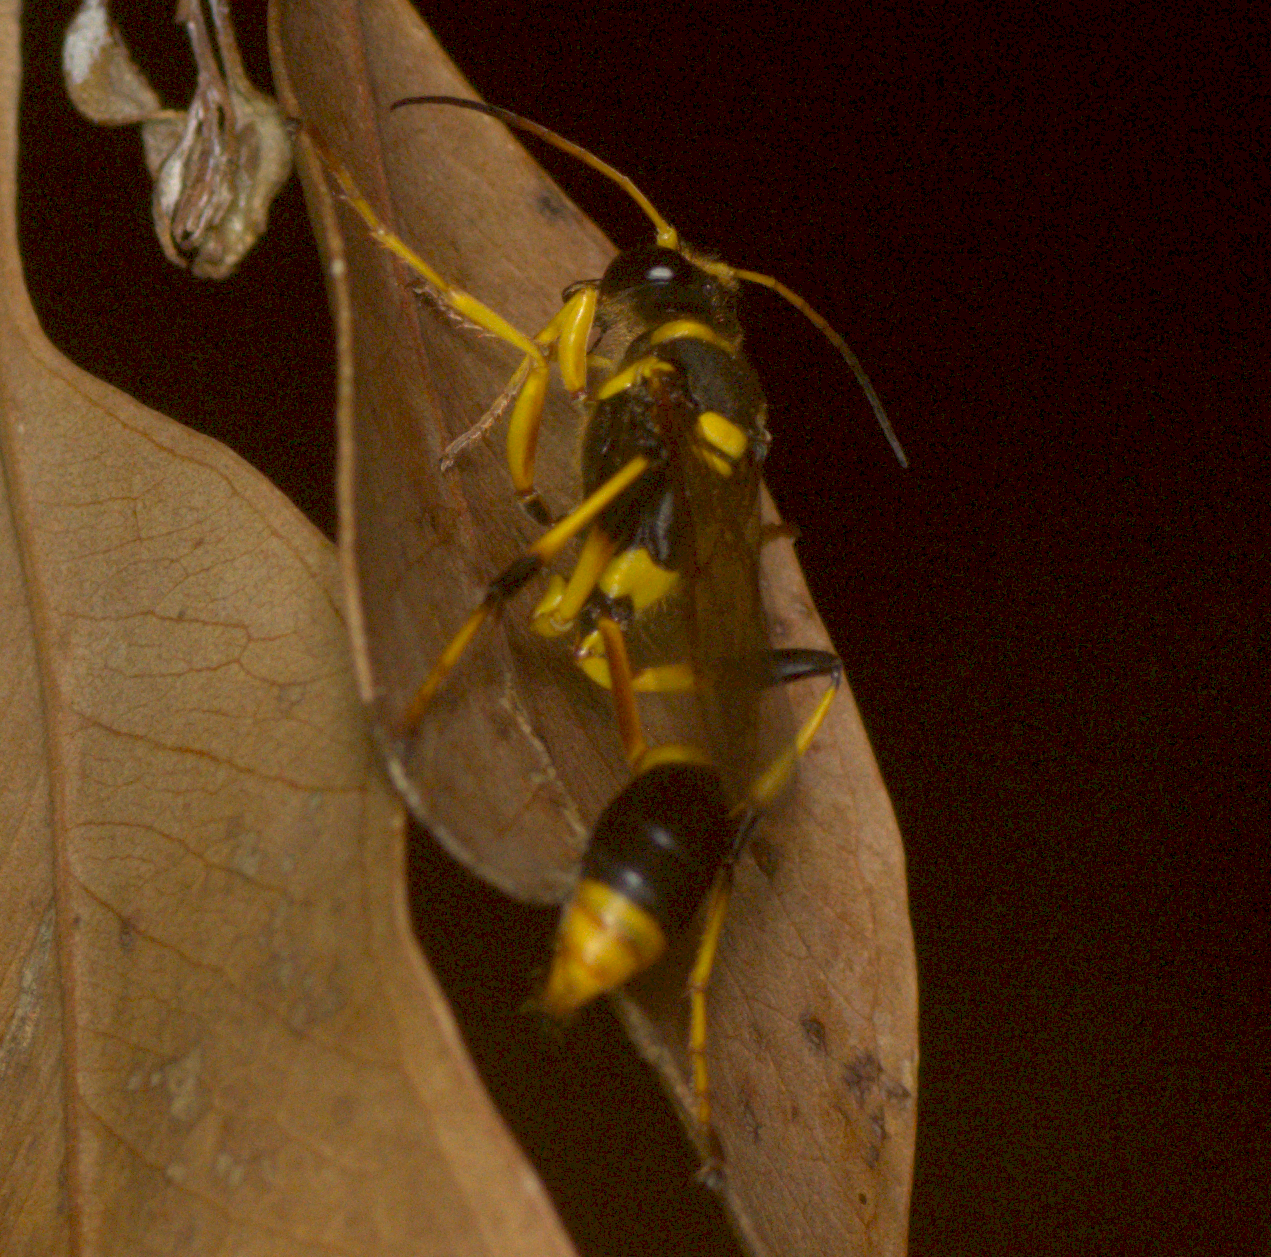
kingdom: Animalia
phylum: Arthropoda
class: Insecta
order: Hymenoptera
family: Sphecidae
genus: Sceliphron
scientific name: Sceliphron laetum
